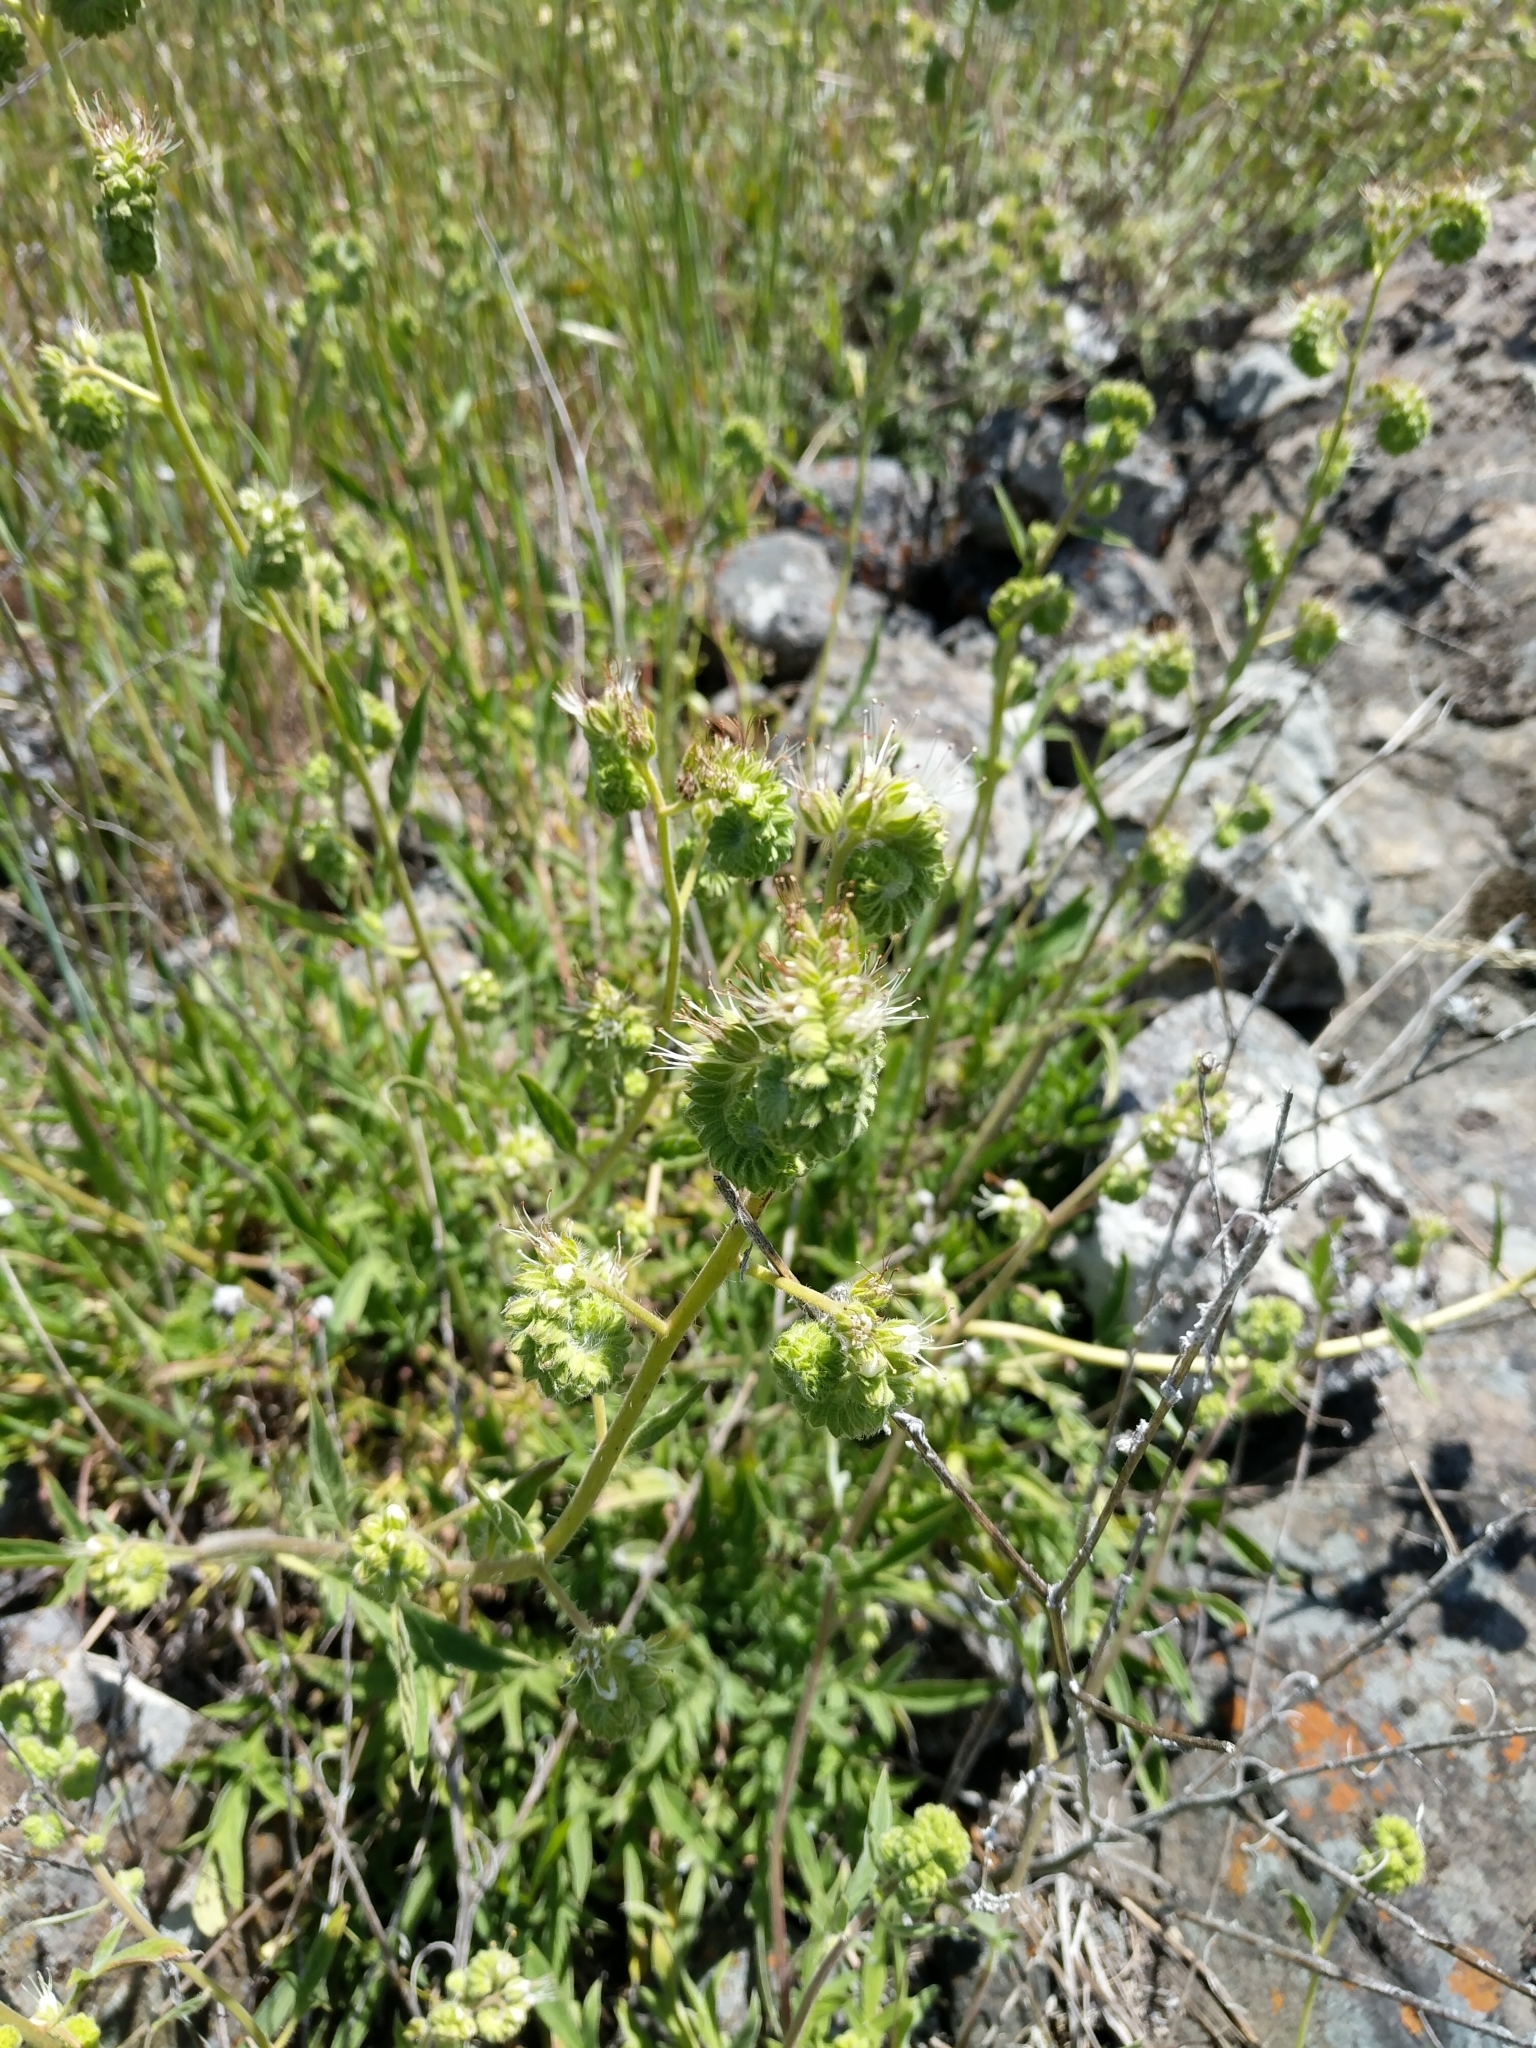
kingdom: Plantae
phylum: Tracheophyta
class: Magnoliopsida
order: Boraginales
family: Hydrophyllaceae
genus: Phacelia
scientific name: Phacelia imbricata
